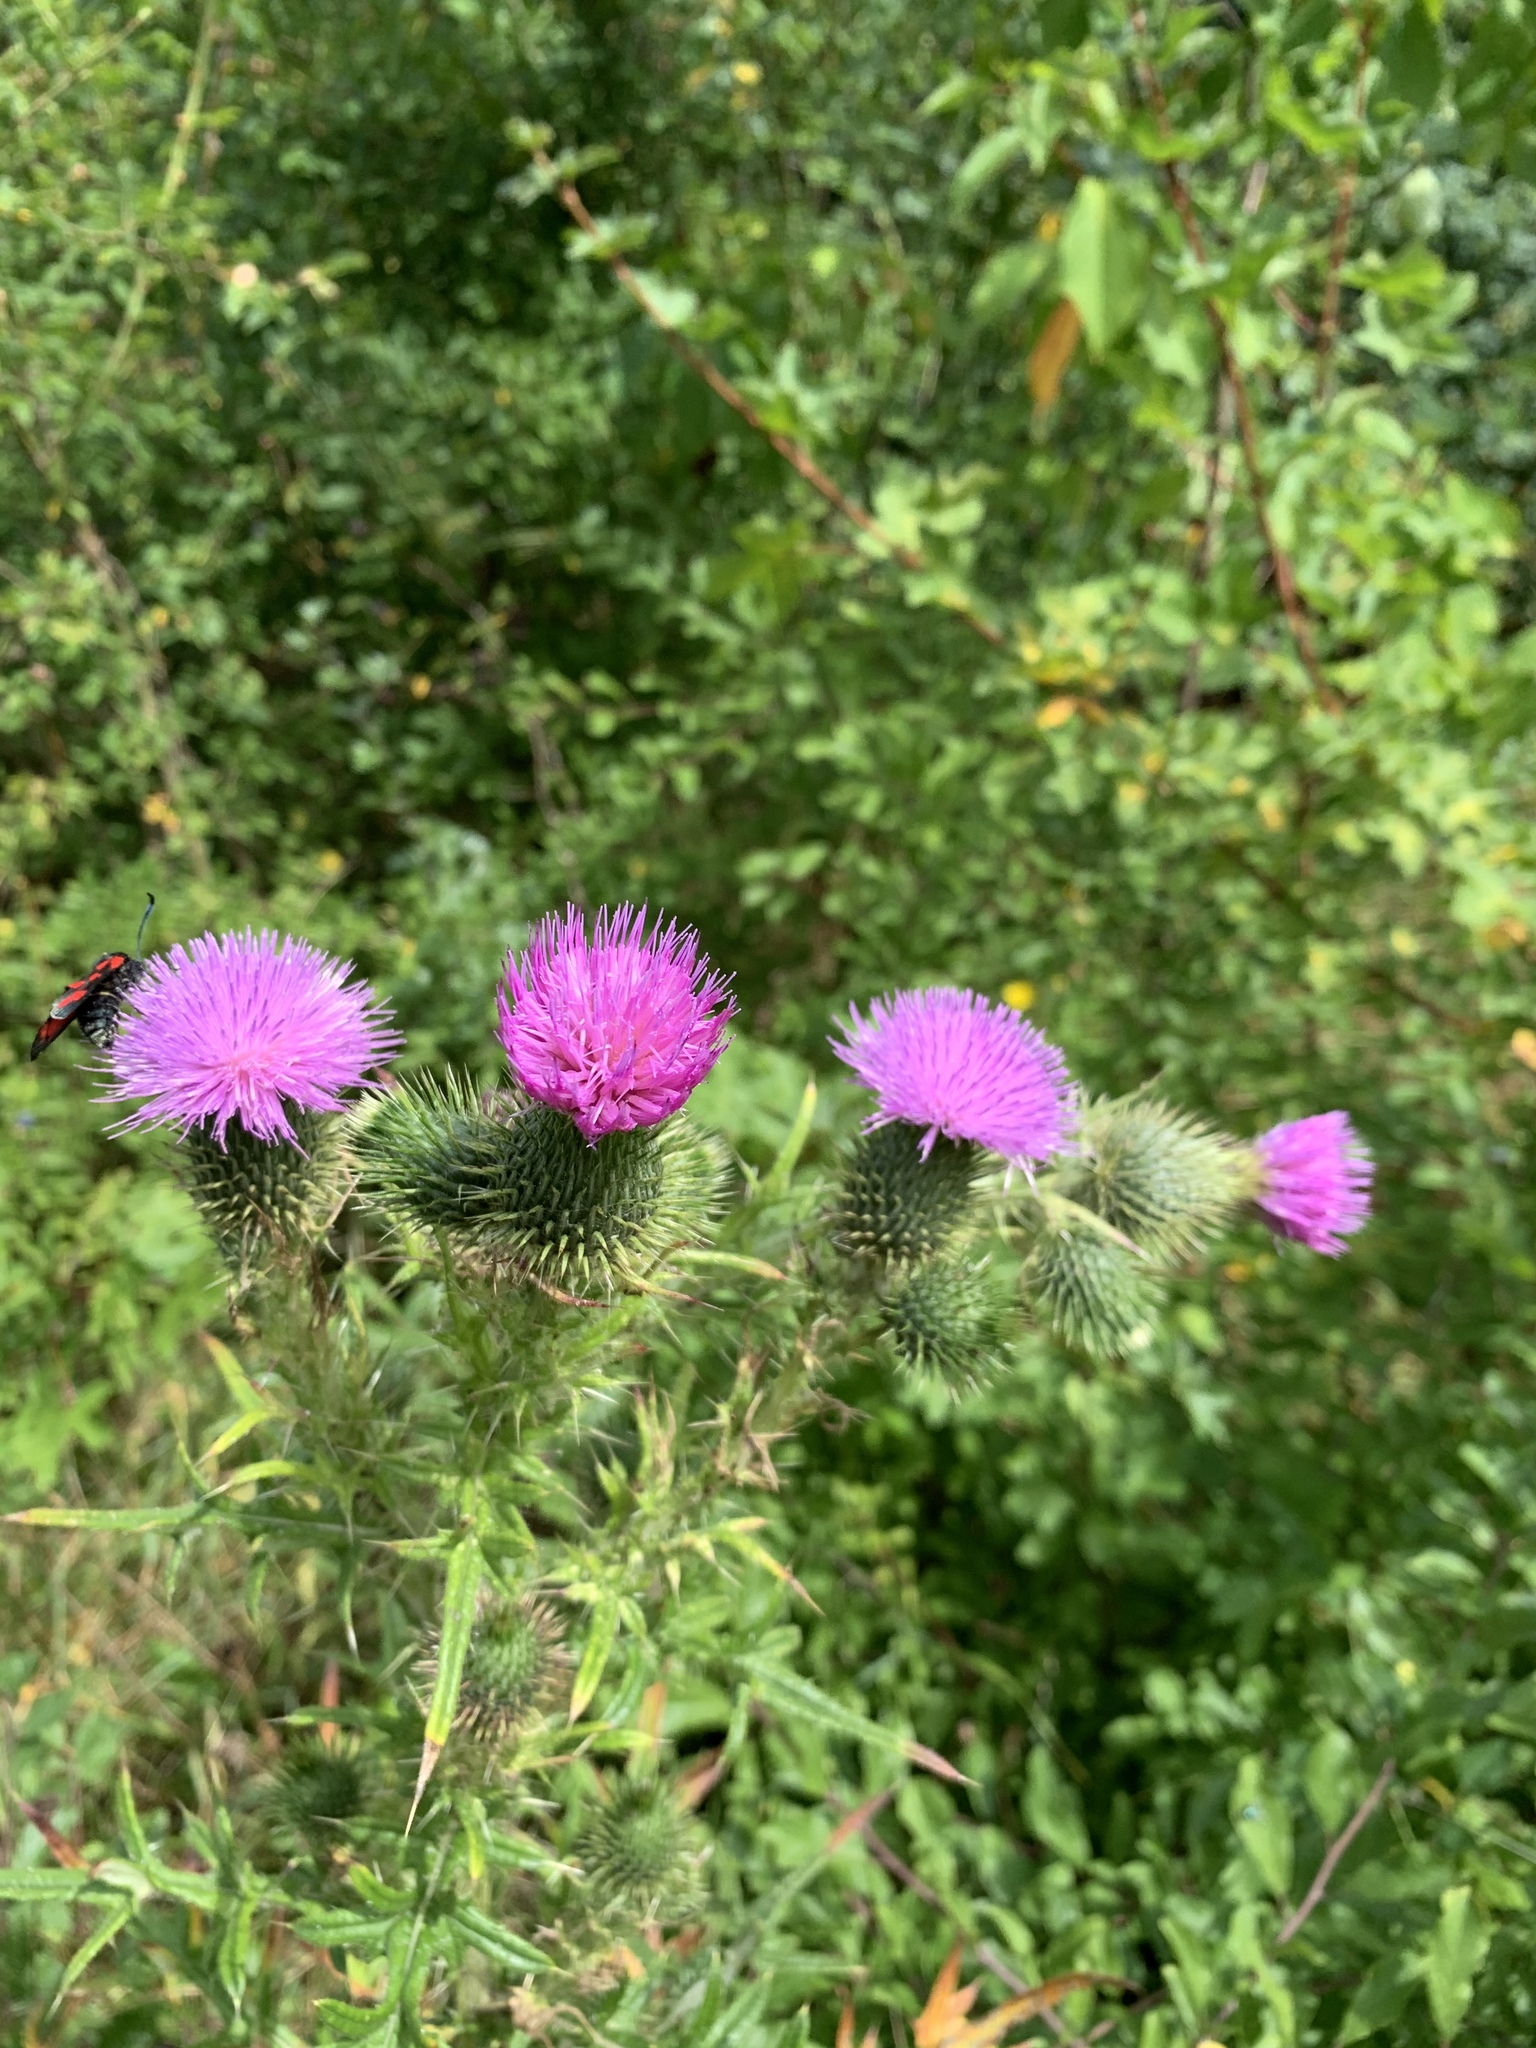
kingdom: Plantae
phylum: Tracheophyta
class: Magnoliopsida
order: Asterales
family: Asteraceae
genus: Cirsium
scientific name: Cirsium vulgare
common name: Bull thistle
